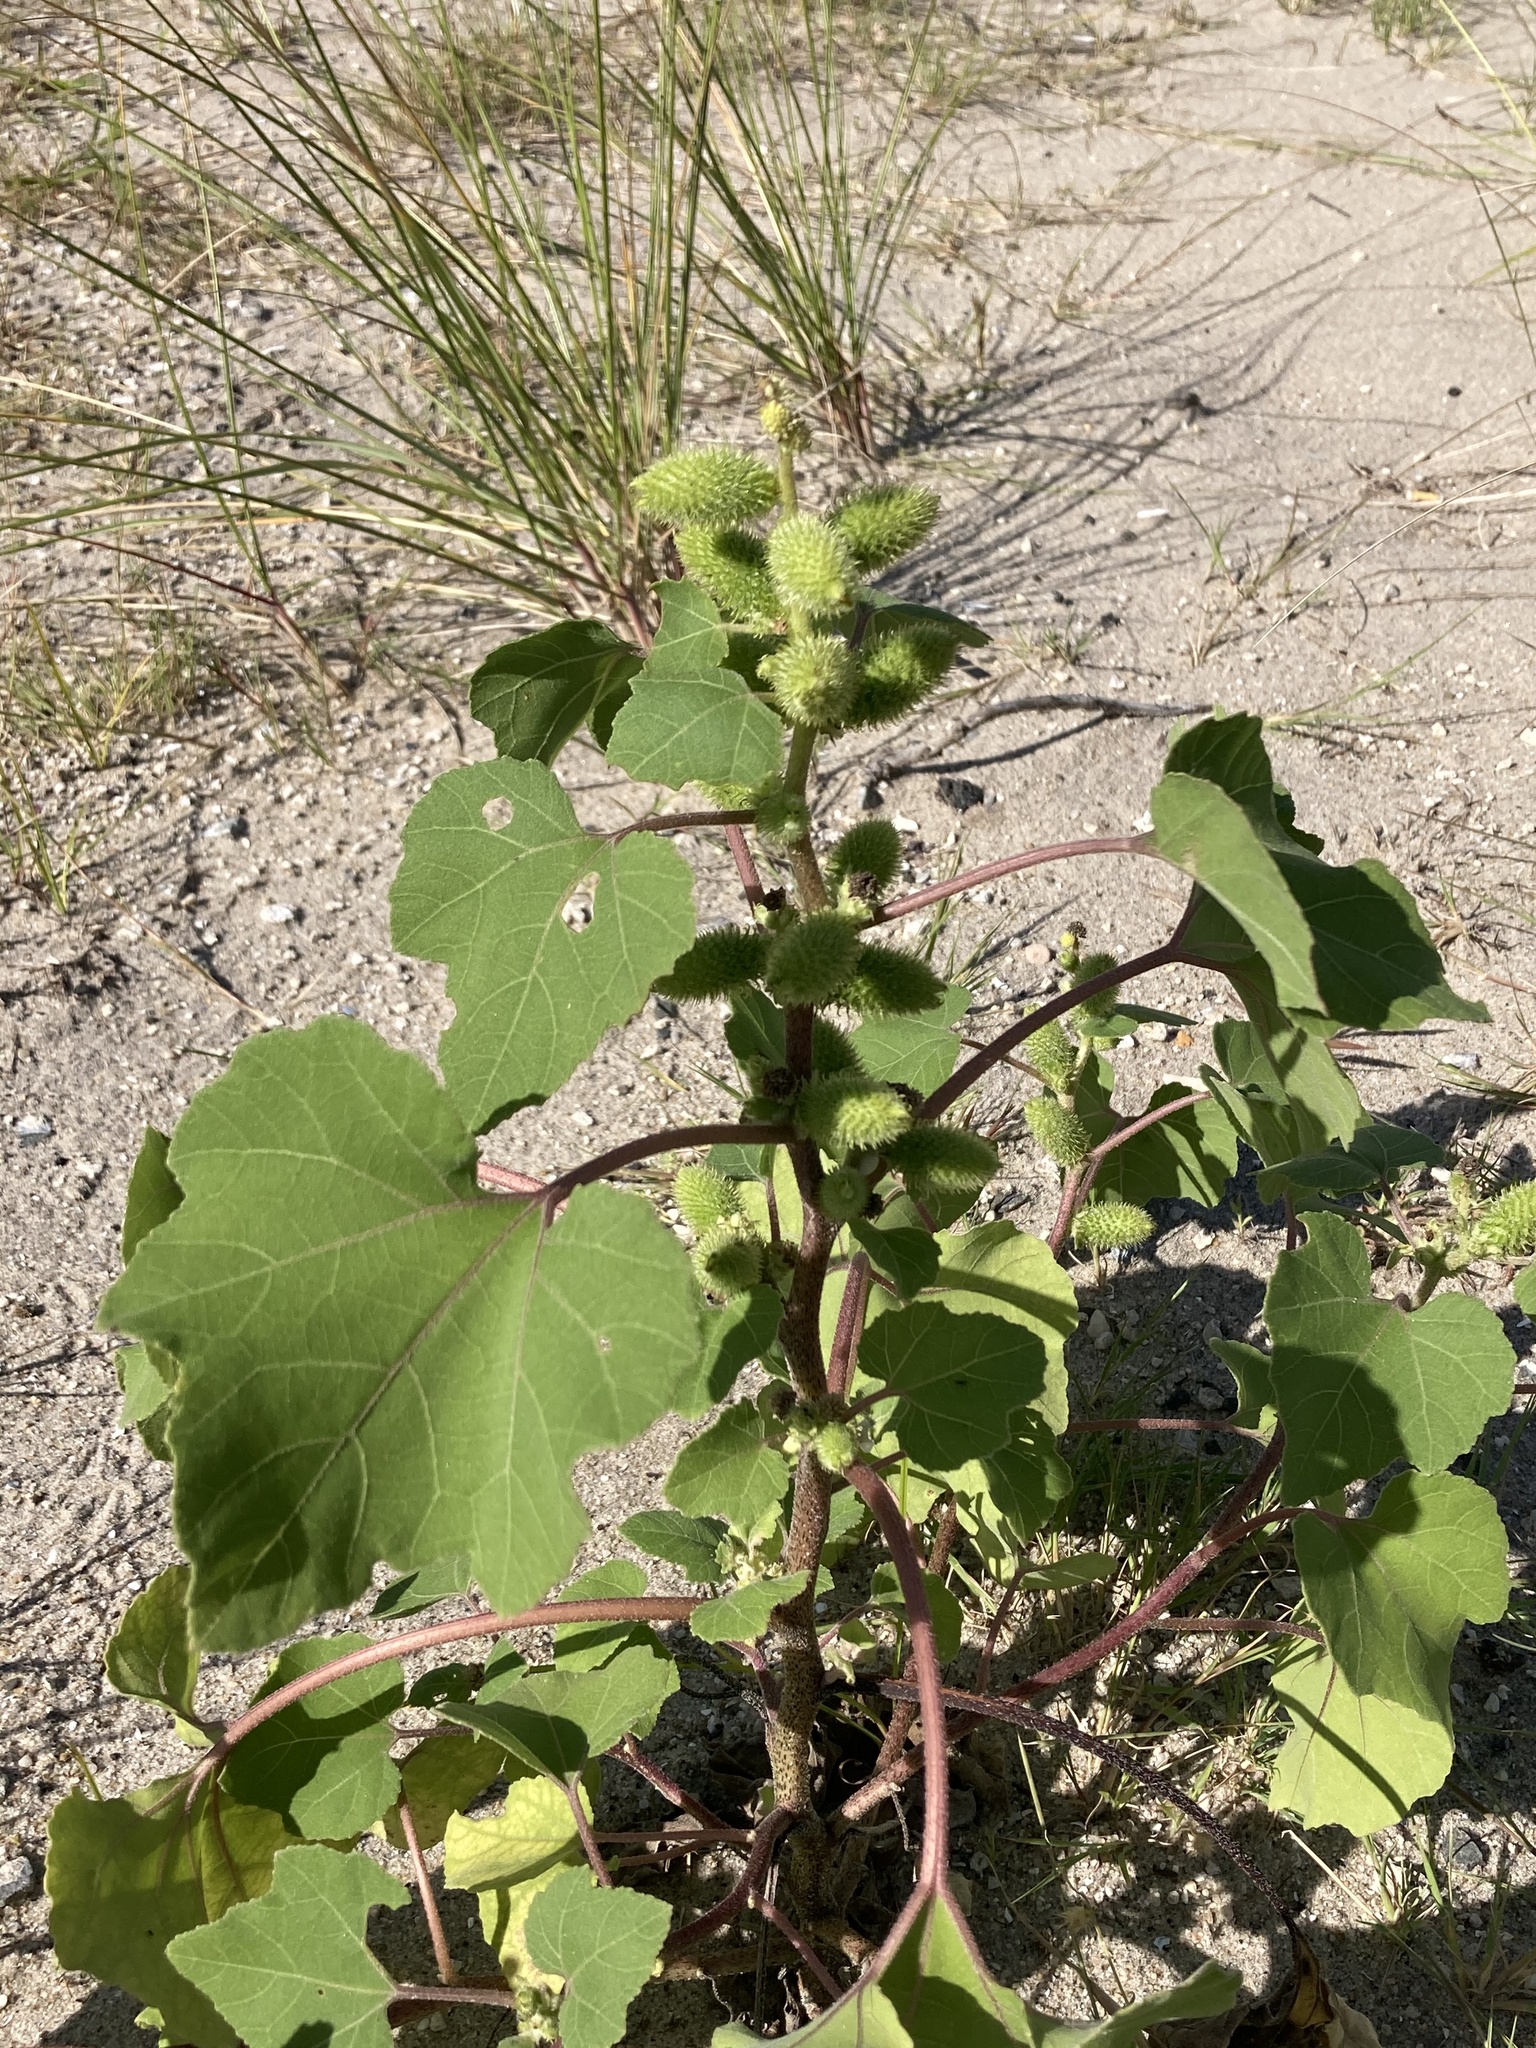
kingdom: Plantae
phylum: Tracheophyta
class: Magnoliopsida
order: Asterales
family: Asteraceae
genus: Xanthium
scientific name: Xanthium strumarium
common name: Rough cocklebur
